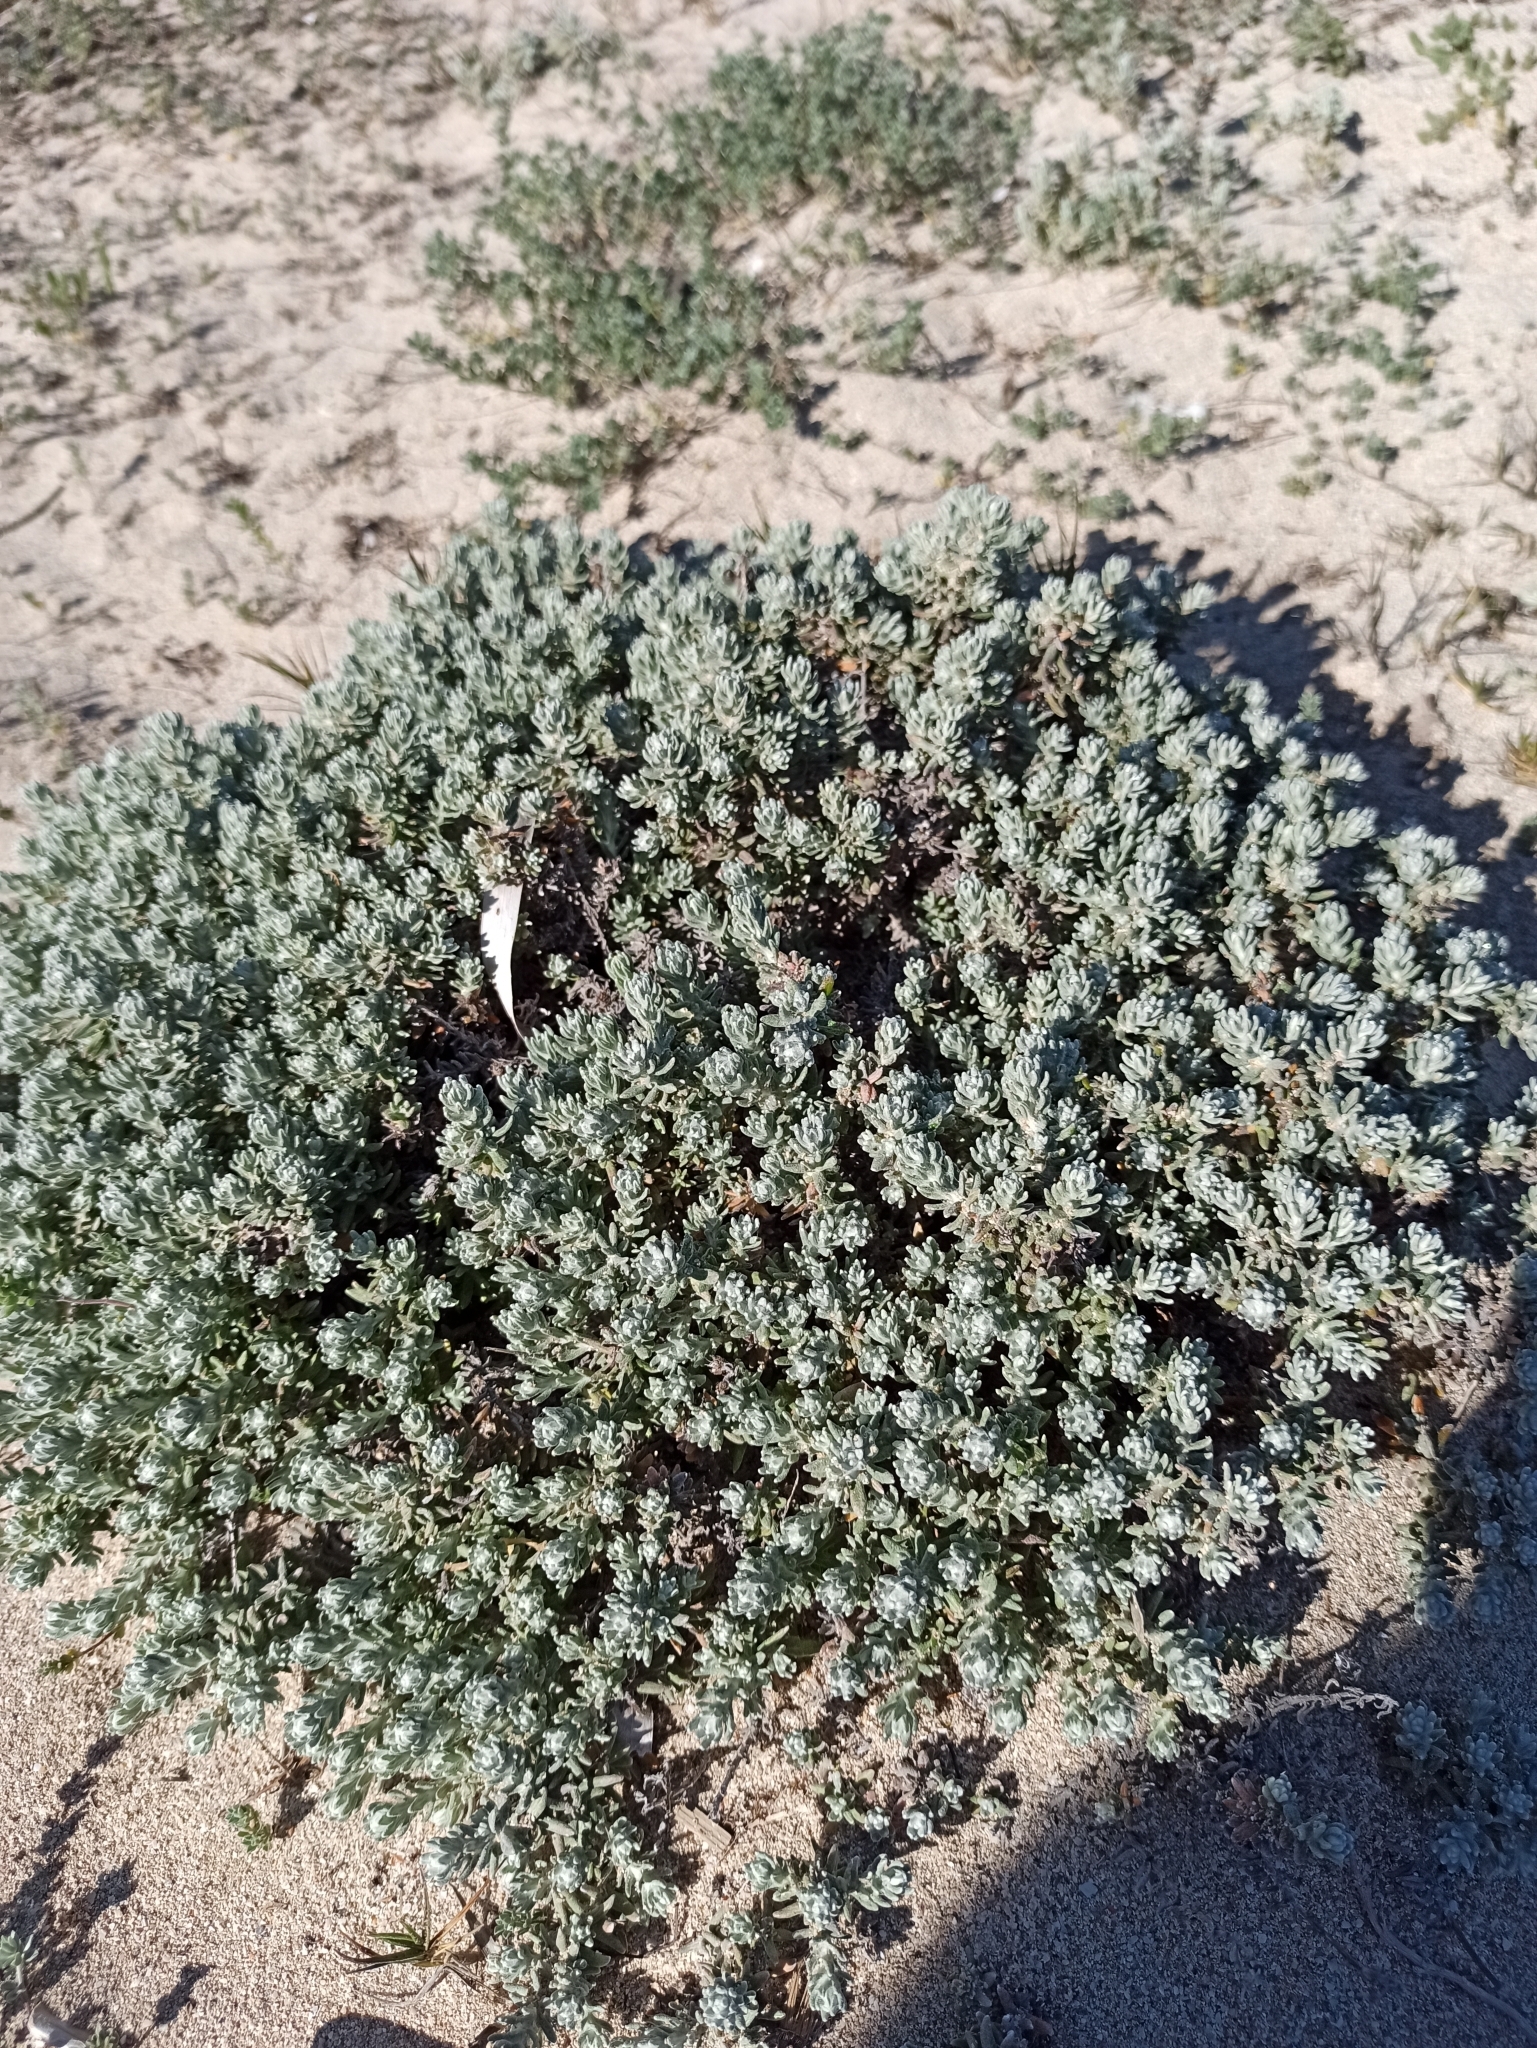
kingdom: Plantae
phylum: Tracheophyta
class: Magnoliopsida
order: Asterales
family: Asteraceae
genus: Helichrysum
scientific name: Helichrysum stoechas
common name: Goldilocks
